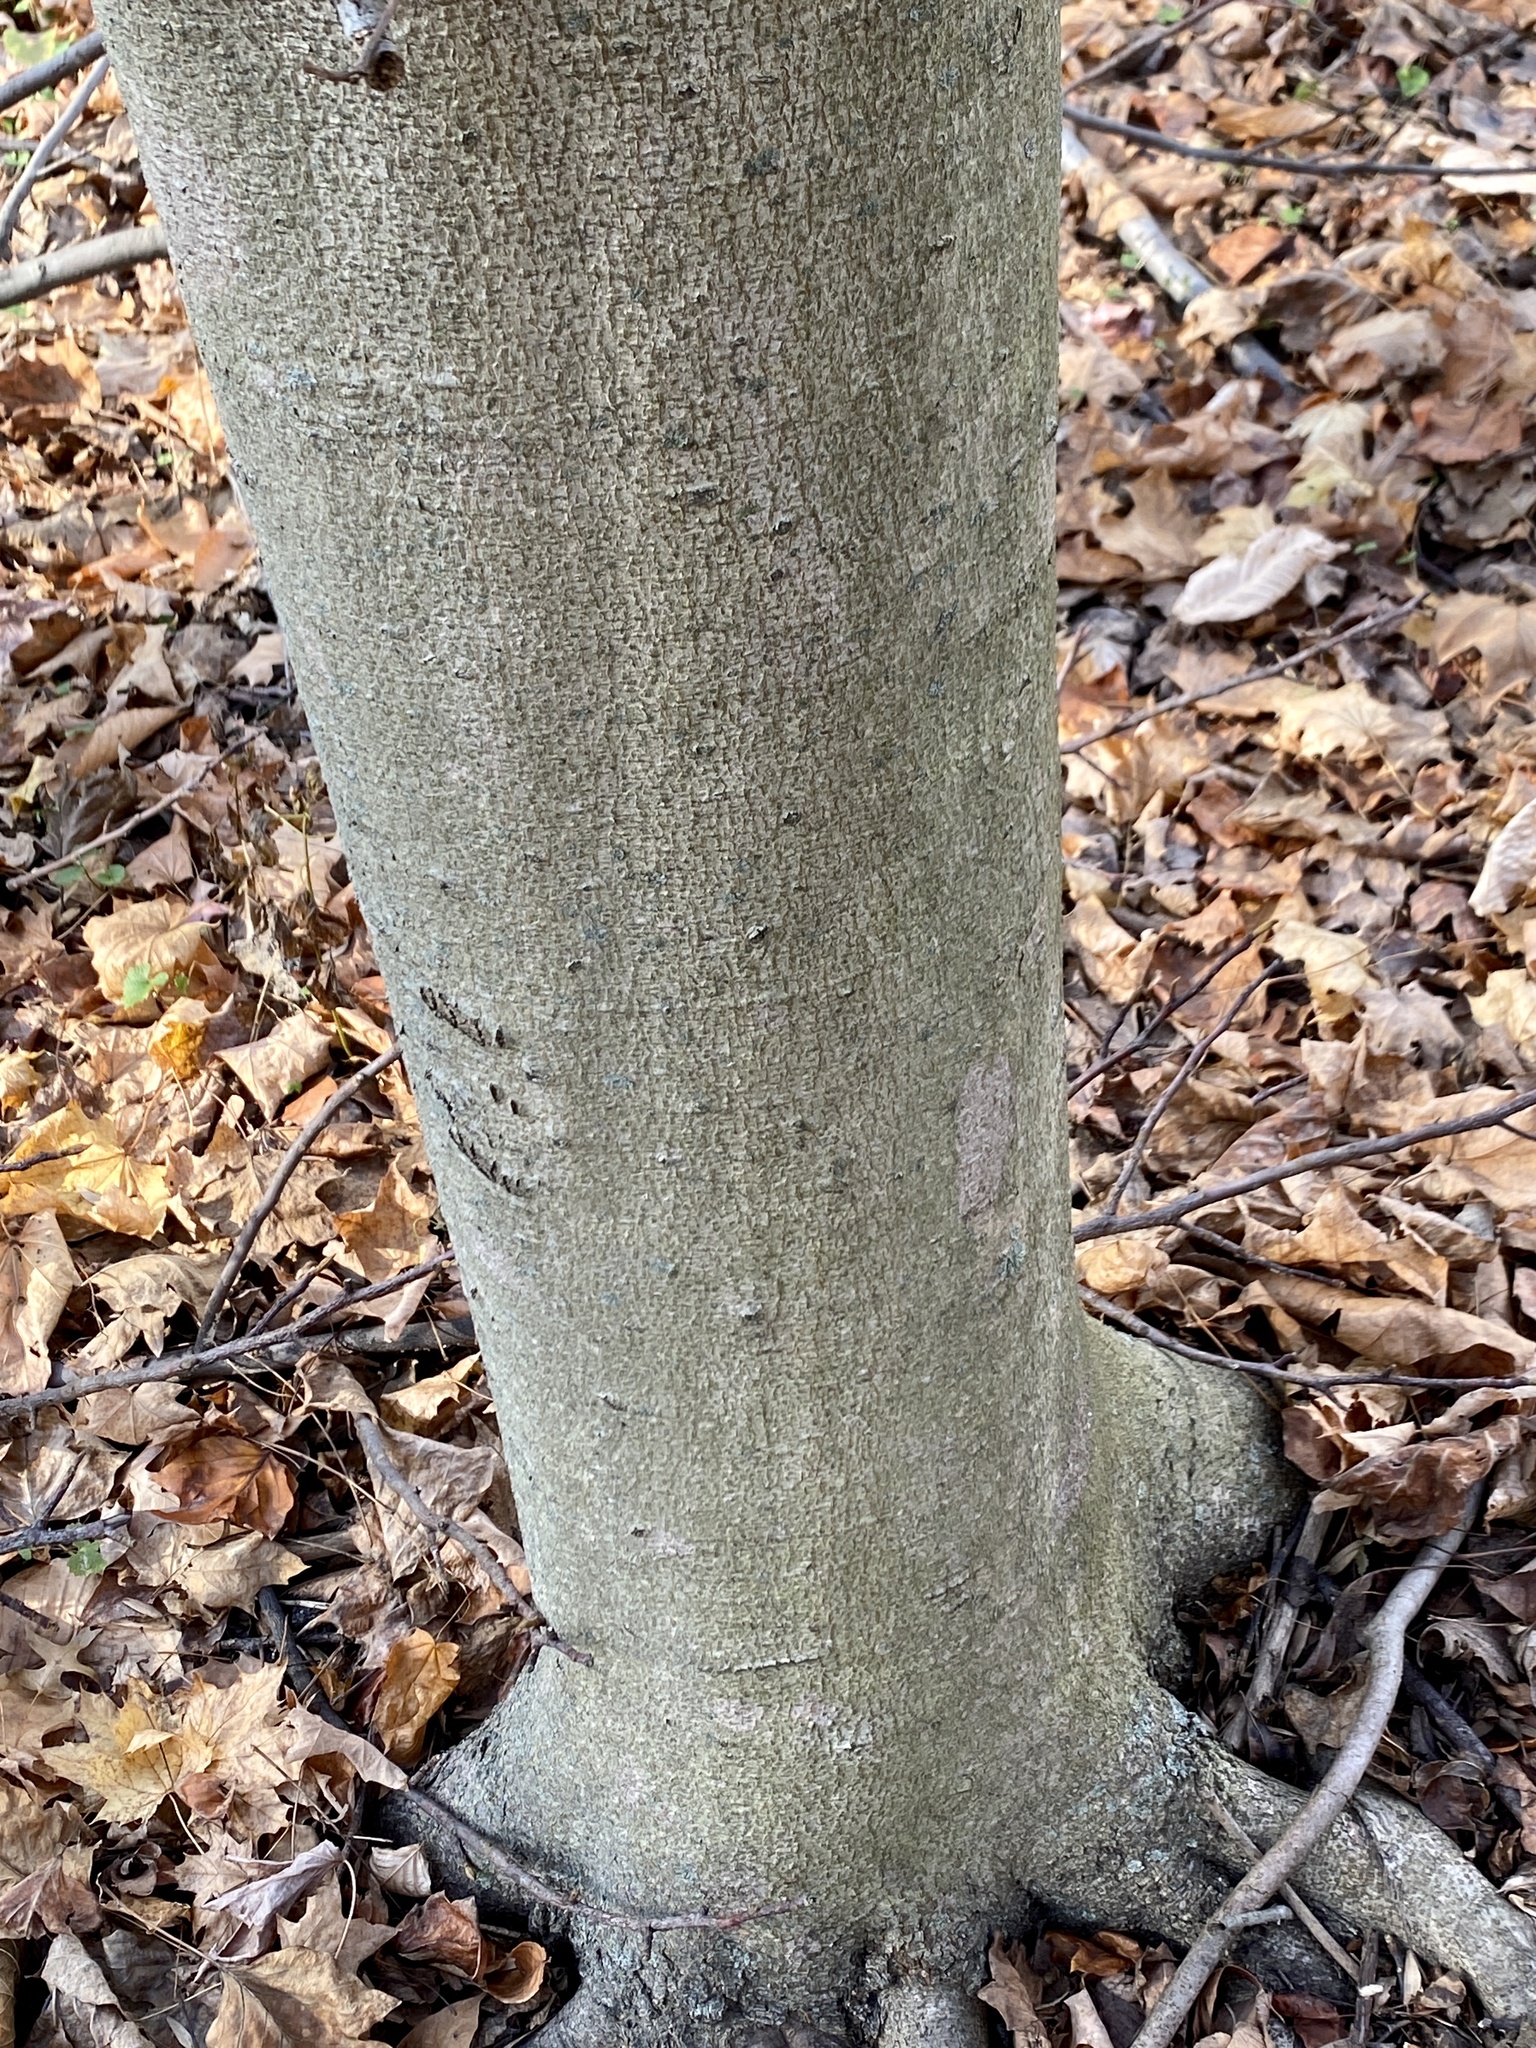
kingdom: Plantae
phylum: Tracheophyta
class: Magnoliopsida
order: Fagales
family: Fagaceae
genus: Fagus
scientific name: Fagus grandifolia
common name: American beech
